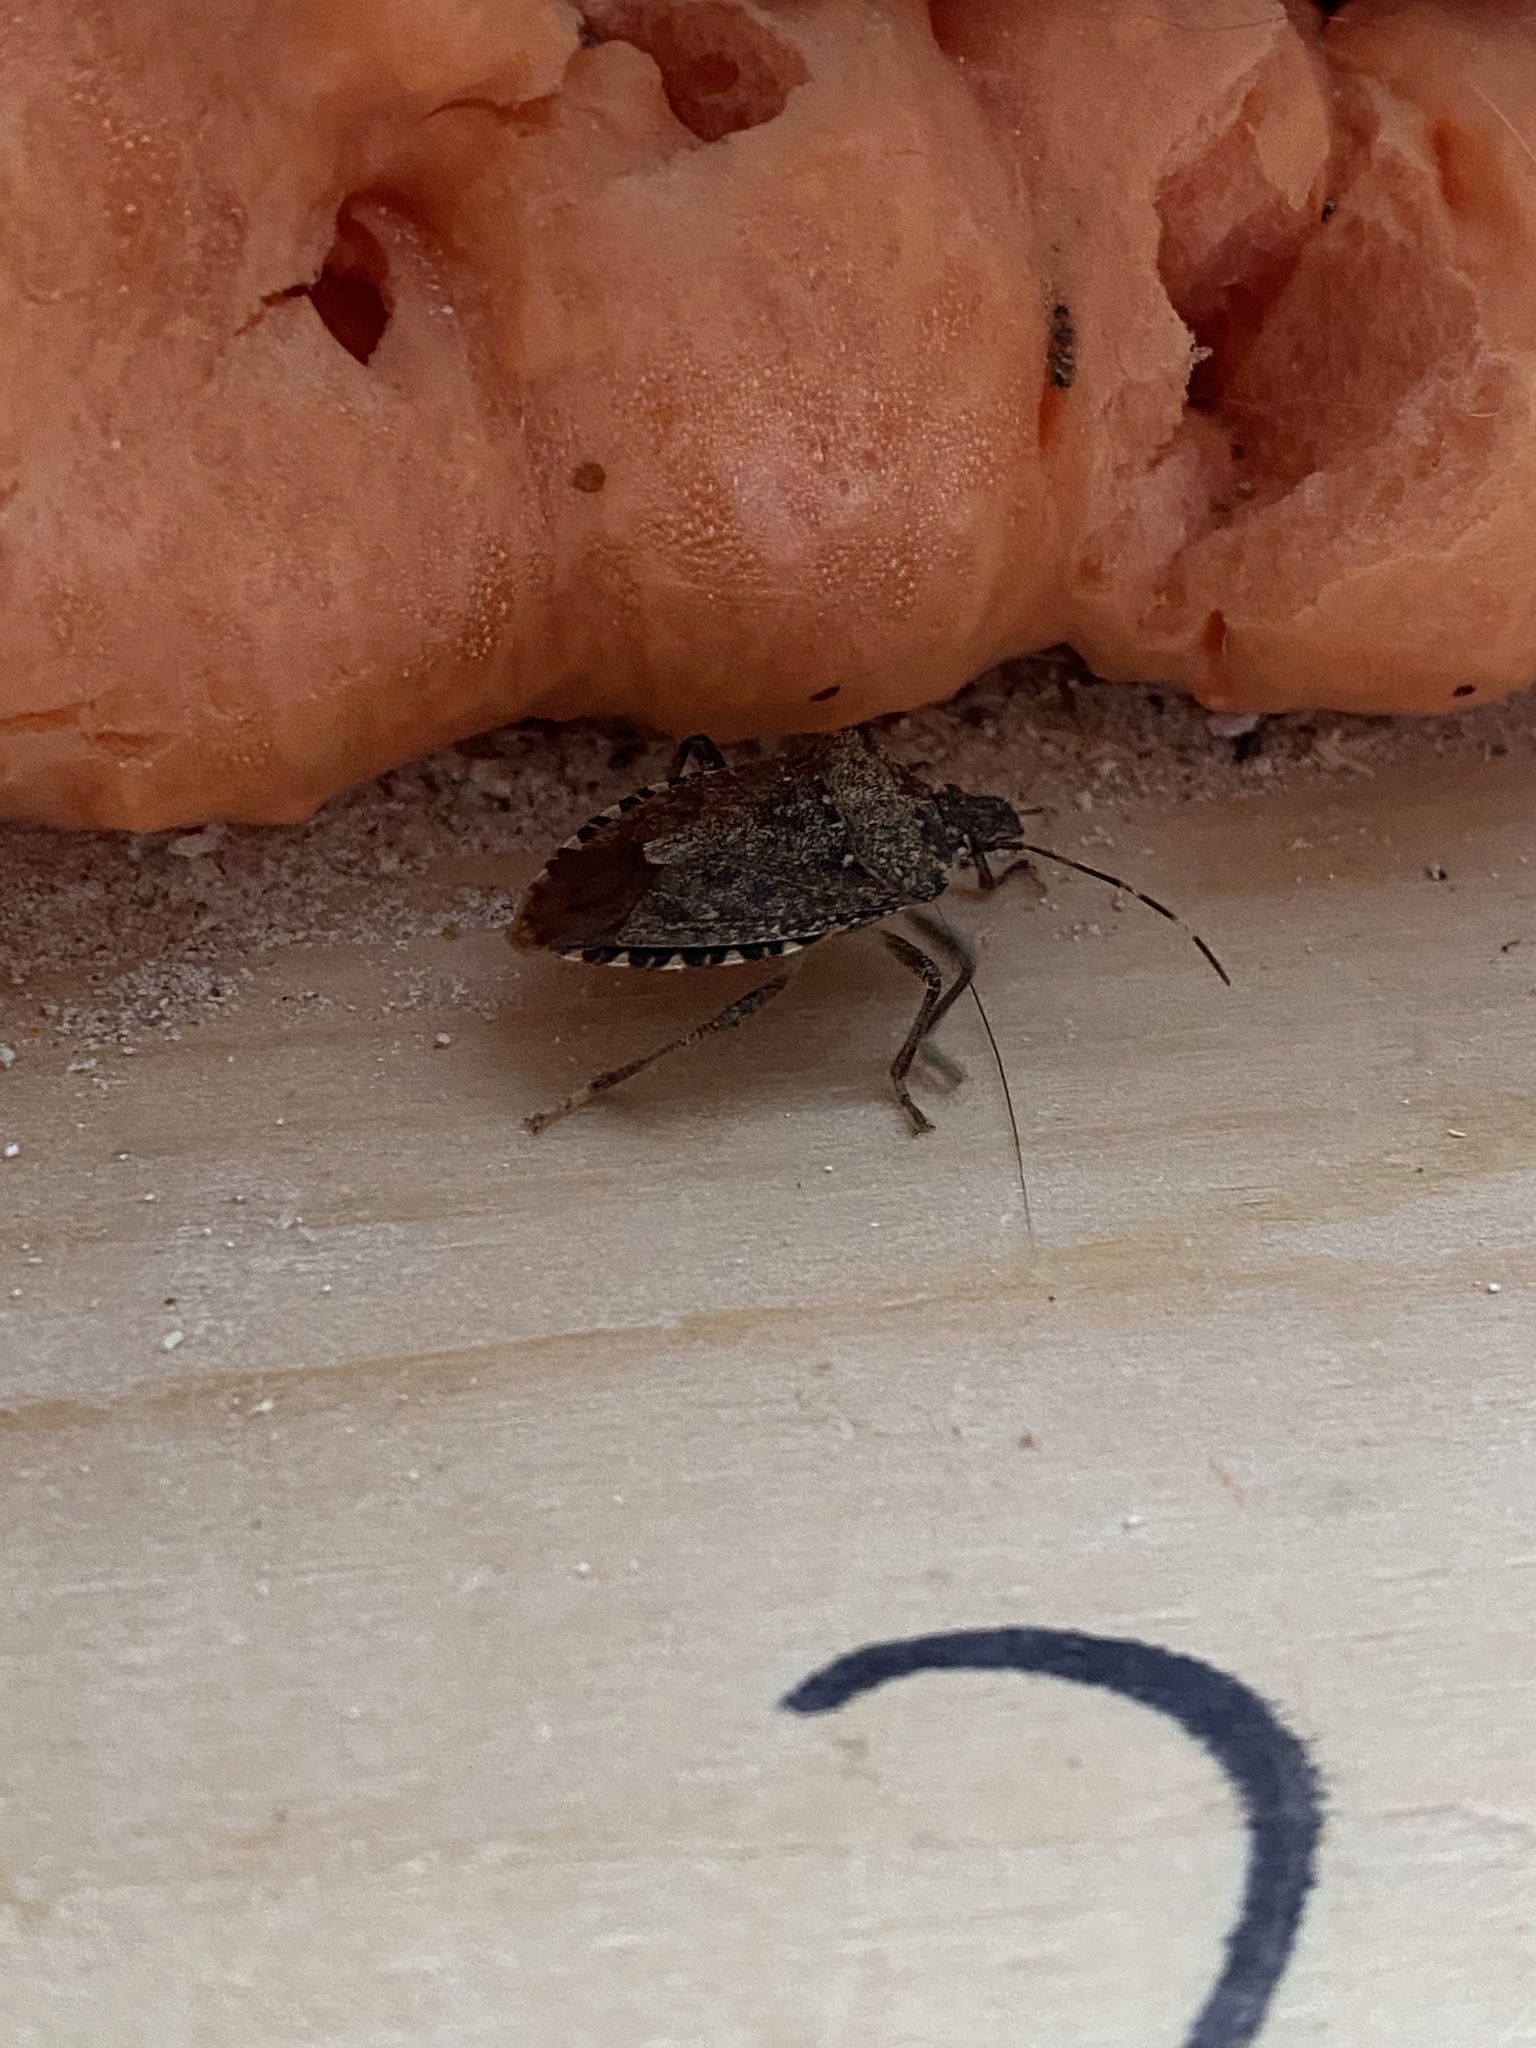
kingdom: Animalia
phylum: Arthropoda
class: Insecta
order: Hemiptera
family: Pentatomidae
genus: Halyomorpha
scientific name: Halyomorpha halys
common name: Brown marmorated stink bug
